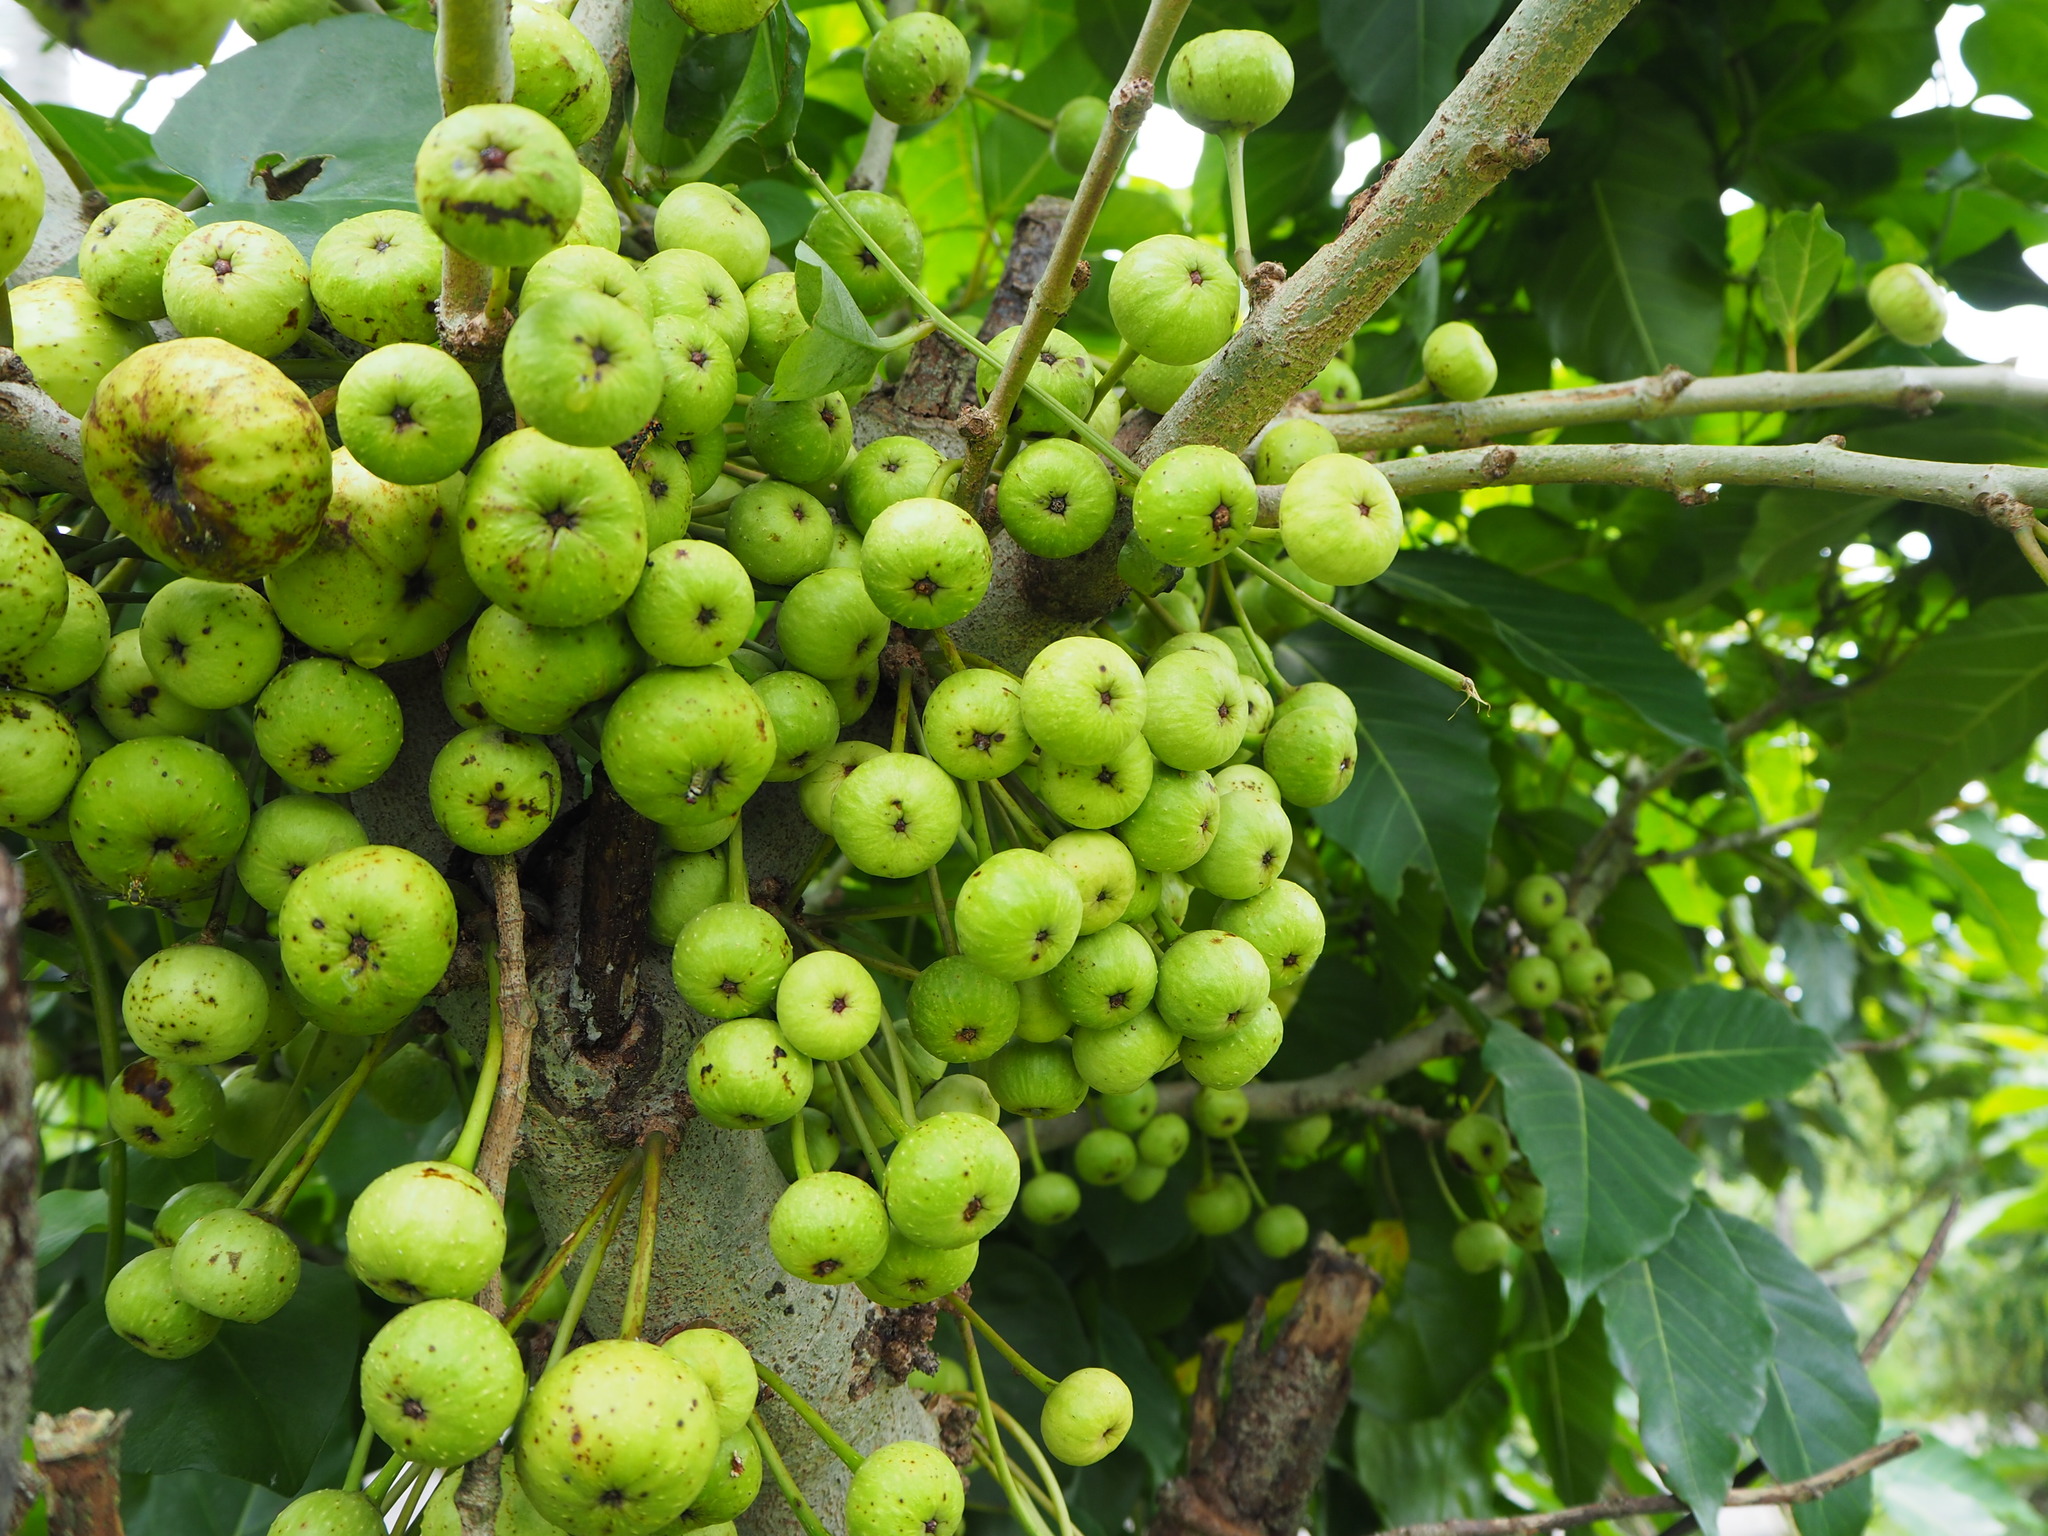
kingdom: Plantae
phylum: Tracheophyta
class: Magnoliopsida
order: Rosales
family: Moraceae
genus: Ficus
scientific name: Ficus variegata
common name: Variegated fig
